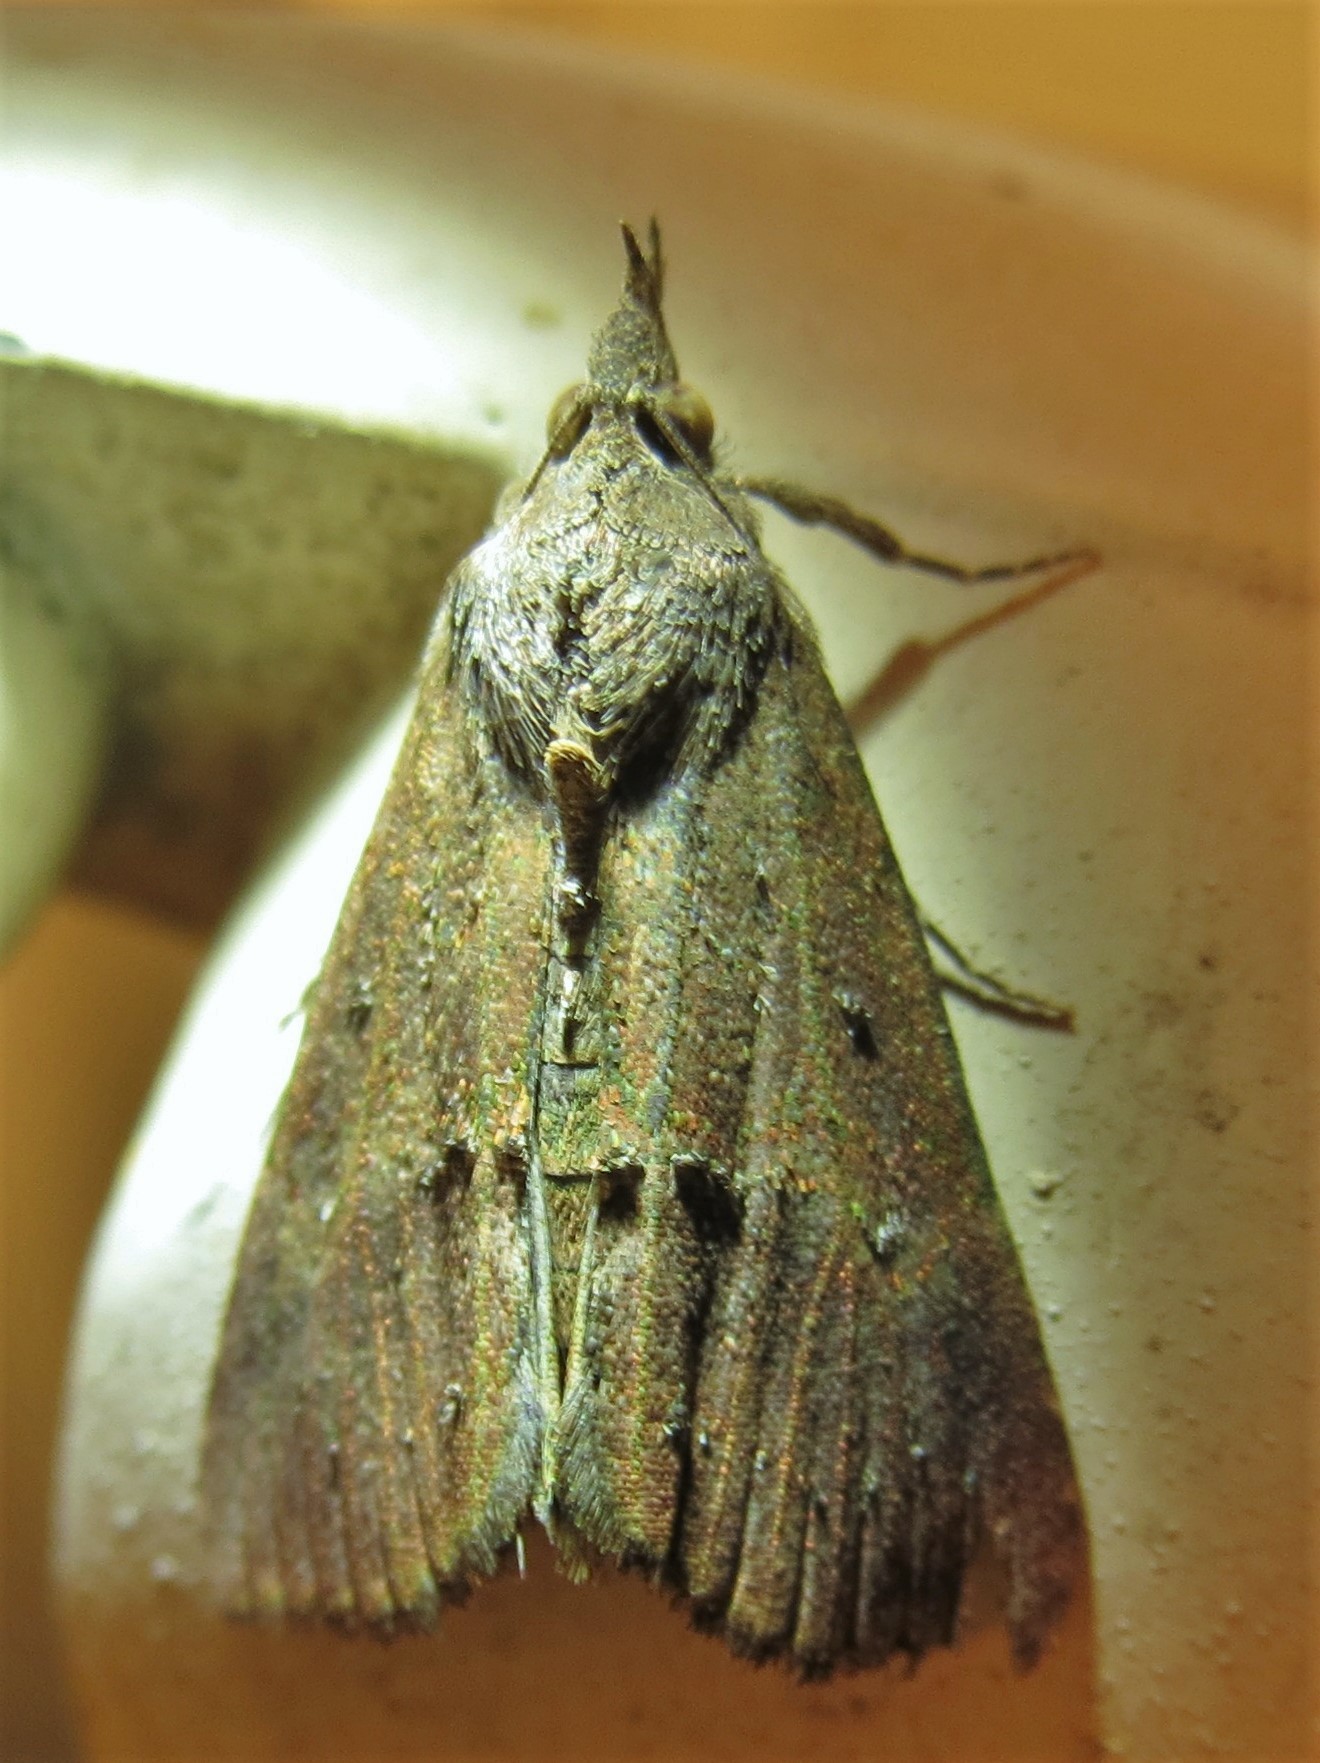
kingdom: Animalia
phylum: Arthropoda
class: Insecta
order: Lepidoptera
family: Erebidae
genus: Hypena
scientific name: Hypena scabra
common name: Green cloverworm
